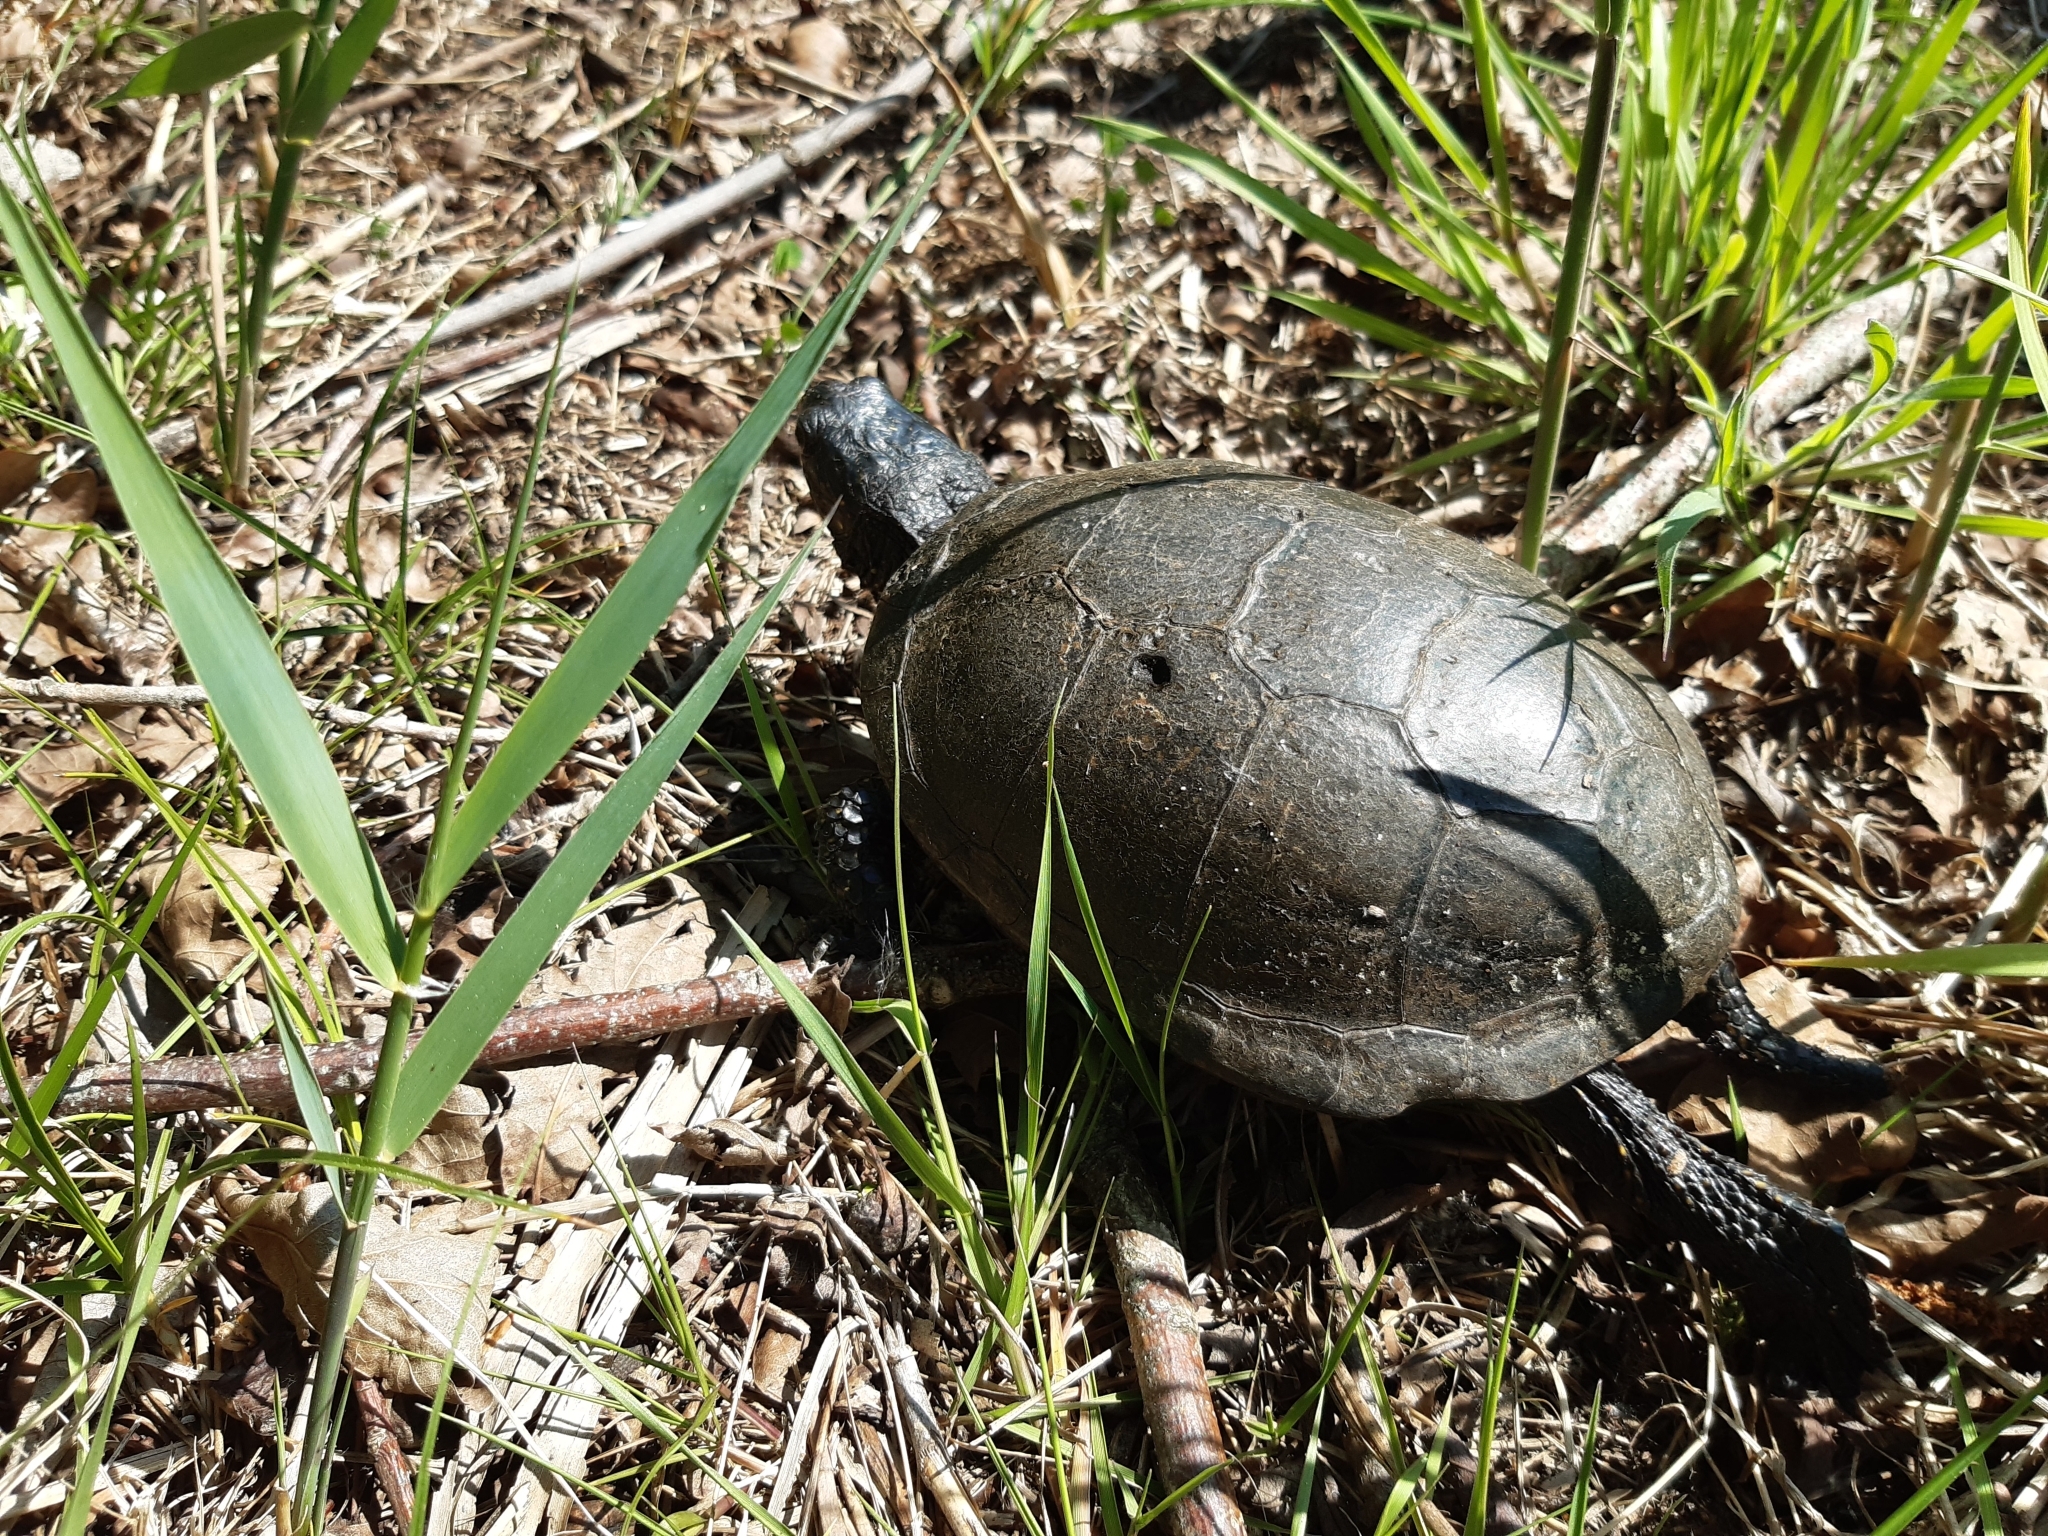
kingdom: Animalia
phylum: Chordata
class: Testudines
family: Emydidae
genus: Emys
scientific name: Emys orbicularis
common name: European pond turtle
